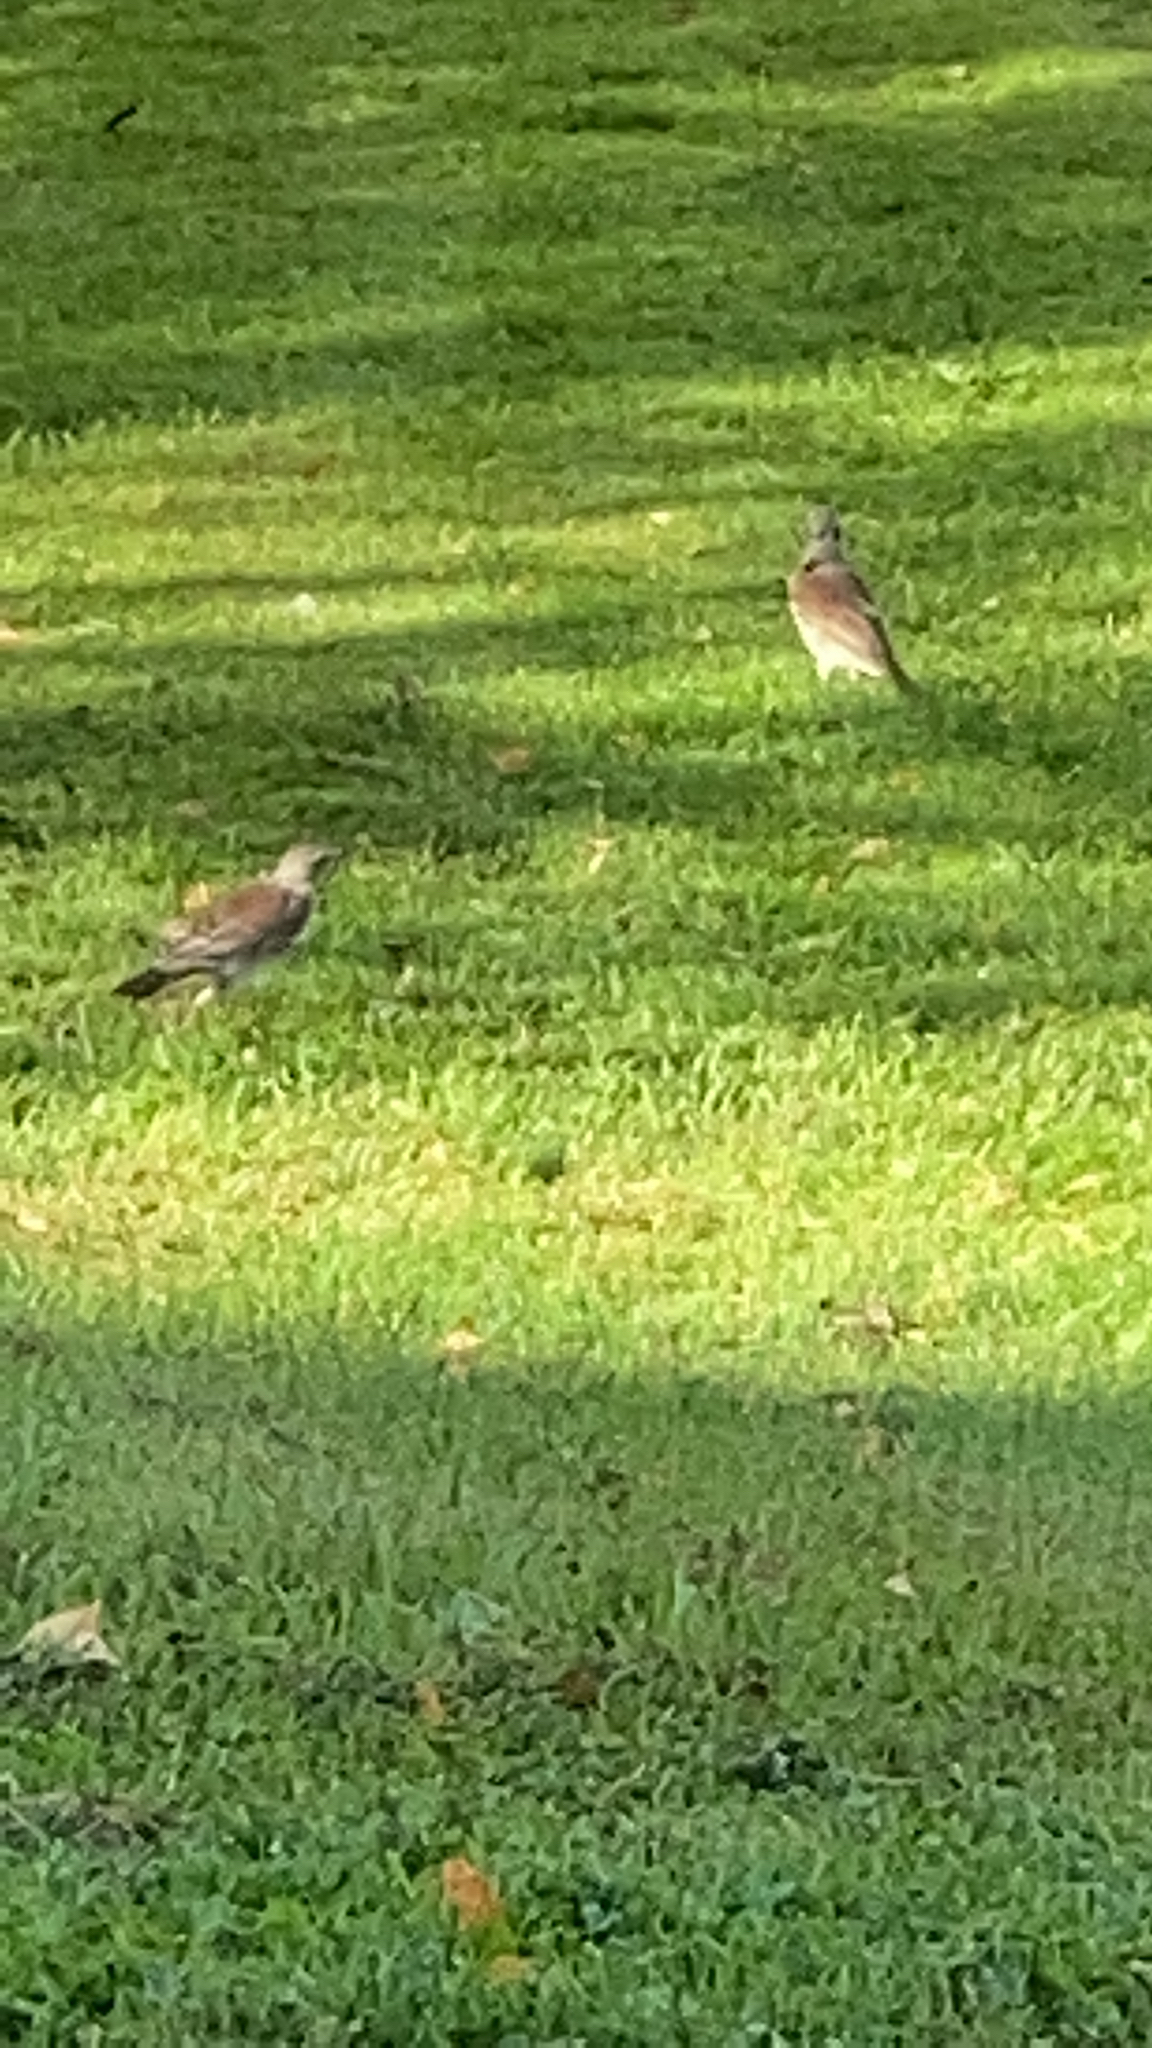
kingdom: Animalia
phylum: Chordata
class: Aves
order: Passeriformes
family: Turdidae
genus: Turdus
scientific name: Turdus pilaris
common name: Fieldfare
